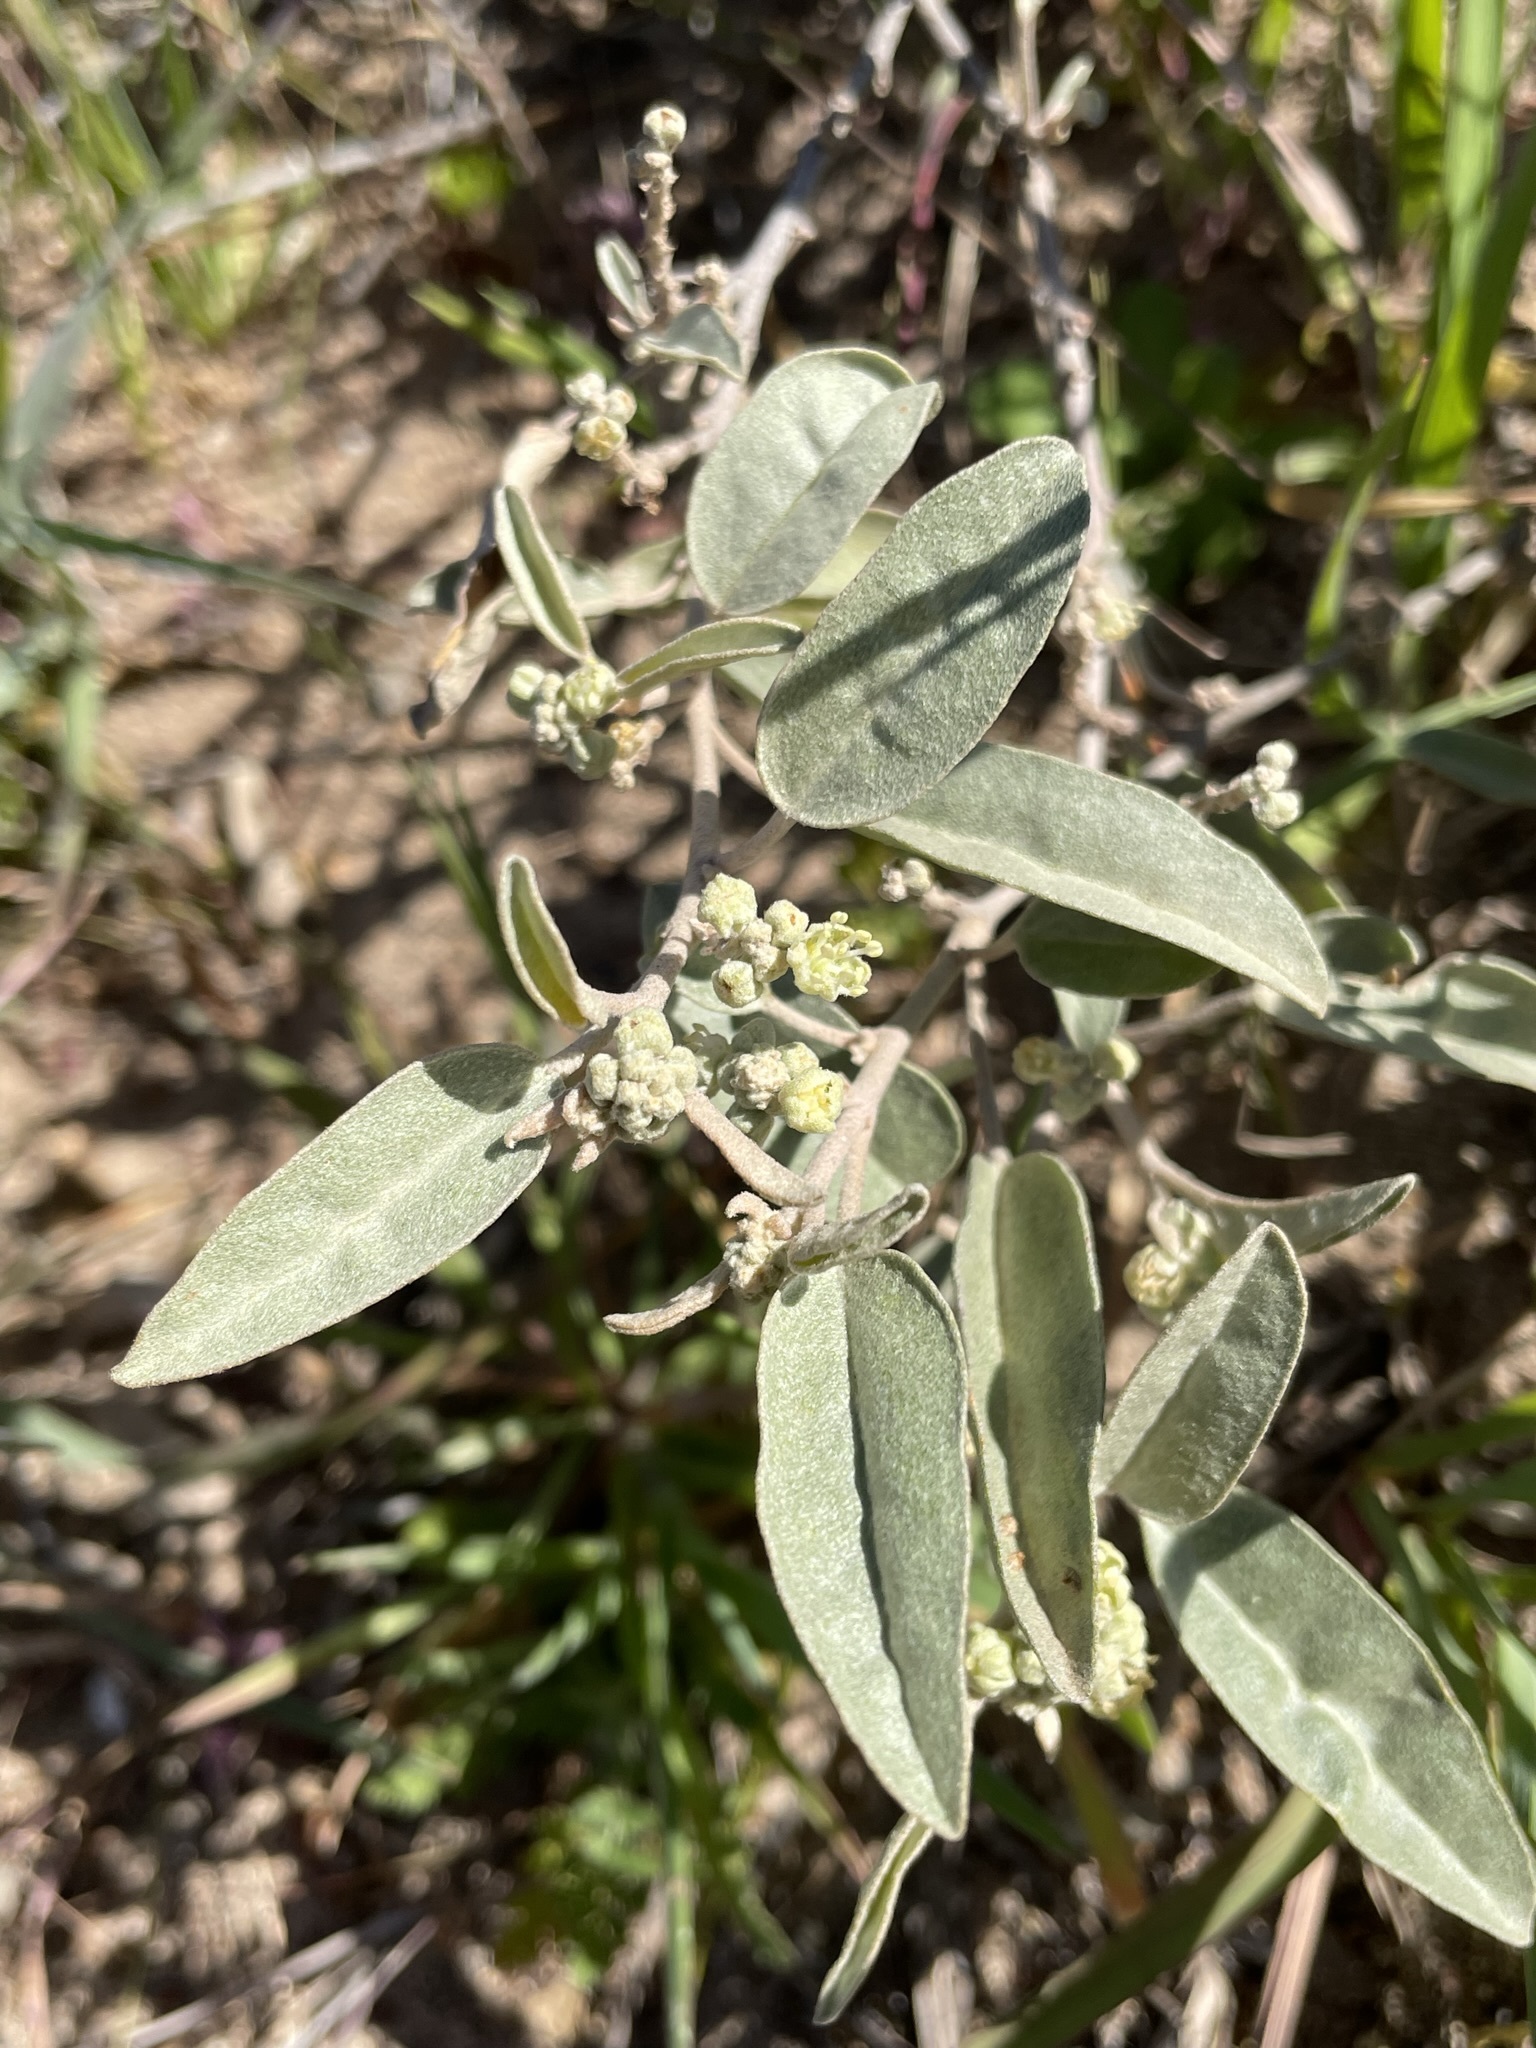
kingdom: Plantae
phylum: Tracheophyta
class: Magnoliopsida
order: Malpighiales
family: Euphorbiaceae
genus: Croton
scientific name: Croton californicus
